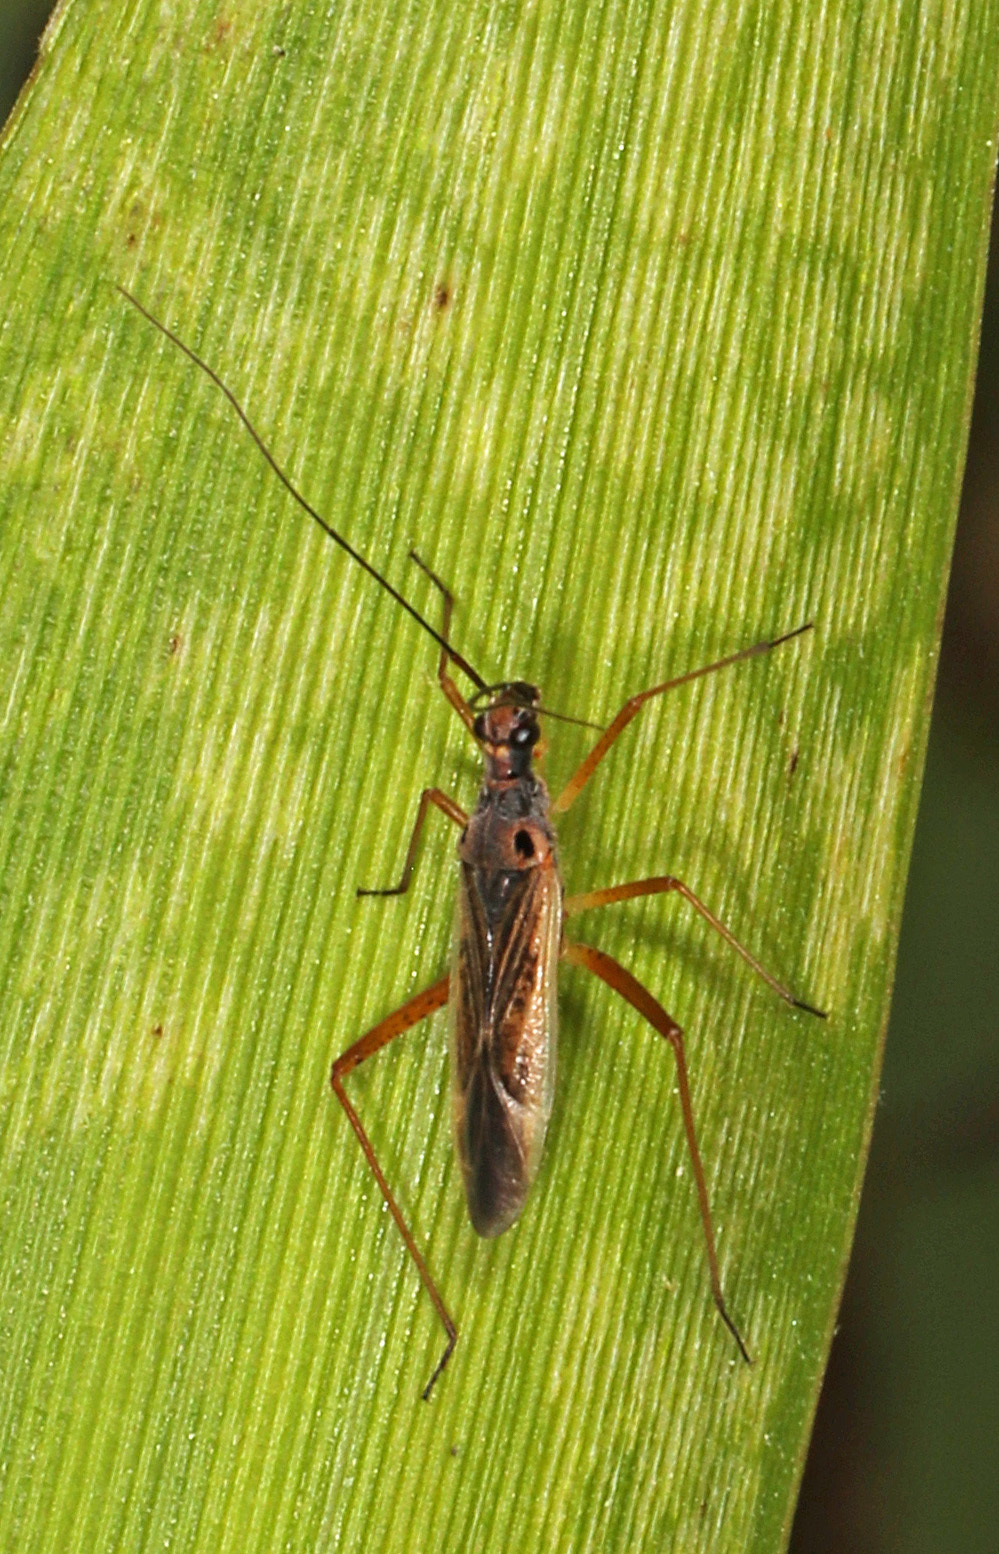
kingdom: Animalia
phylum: Arthropoda
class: Insecta
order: Hemiptera
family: Miridae
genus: Collaria
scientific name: Collaria oculata
